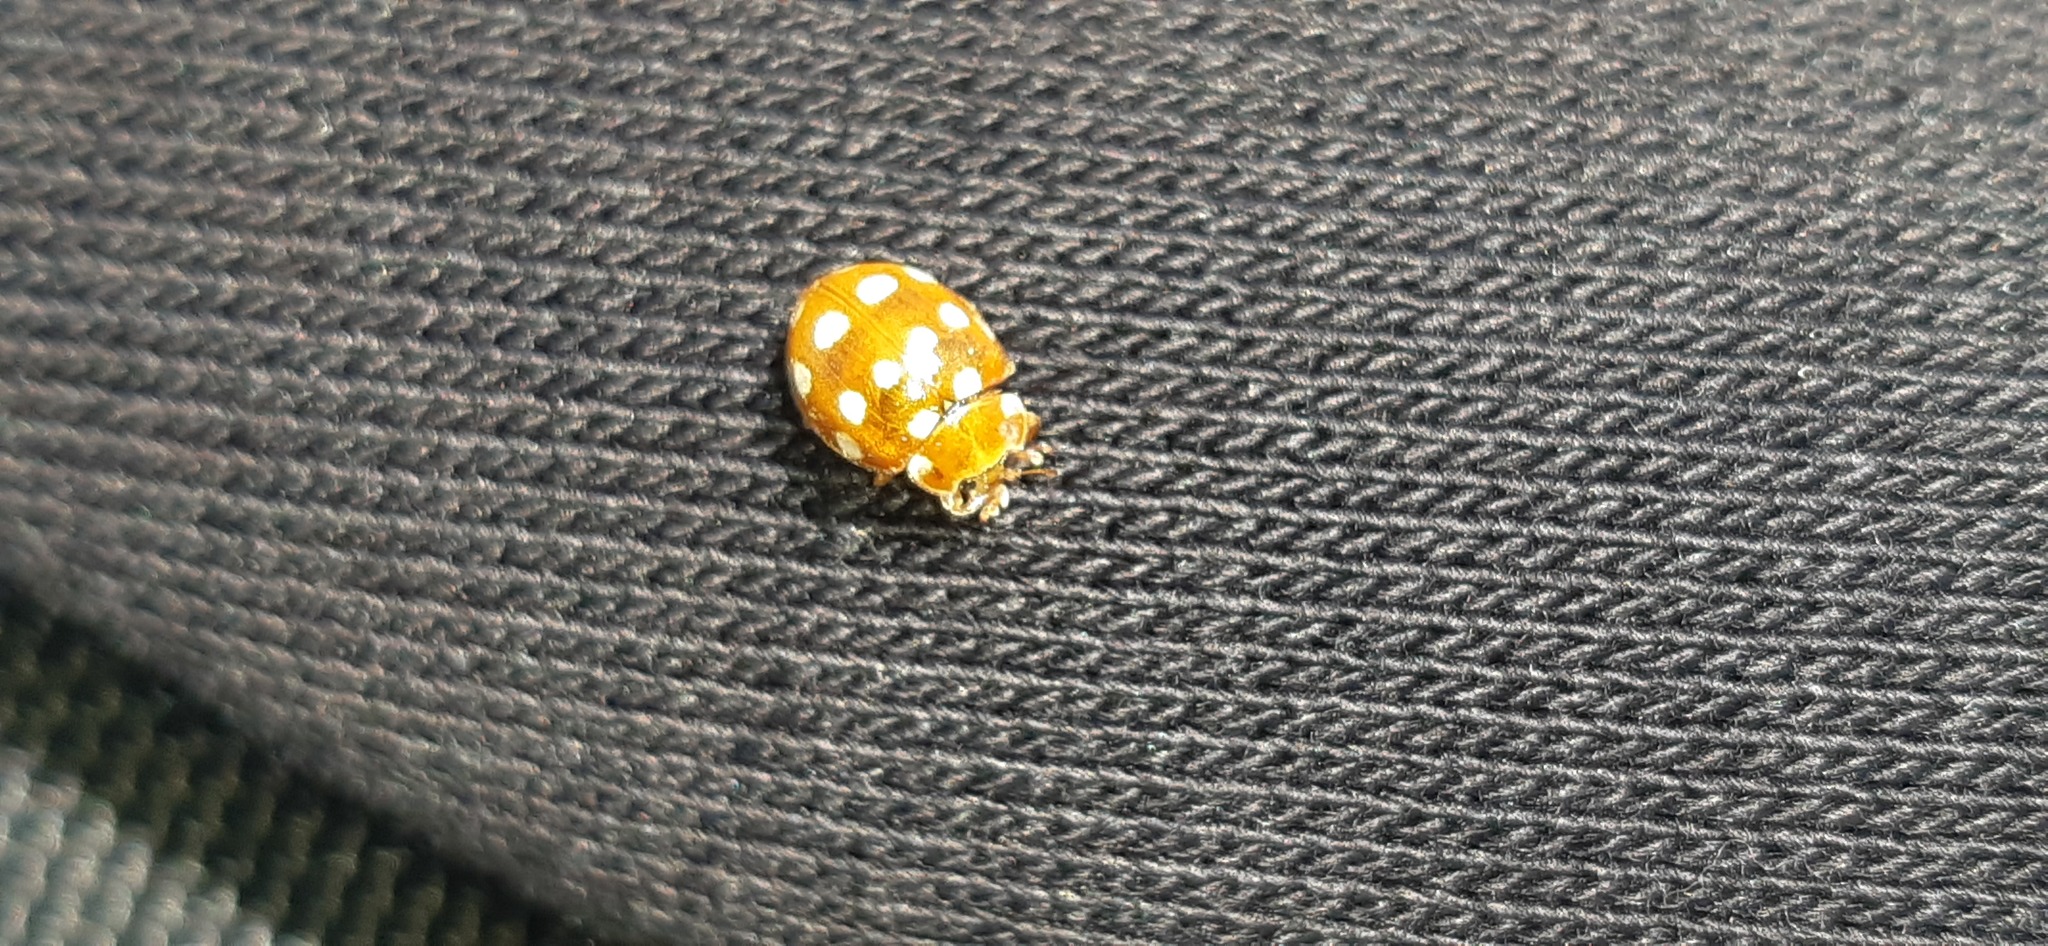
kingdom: Animalia
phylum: Arthropoda
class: Insecta
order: Coleoptera
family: Coccinellidae
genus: Calvia
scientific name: Calvia quatuordecimguttata
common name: Cream-spot ladybird
